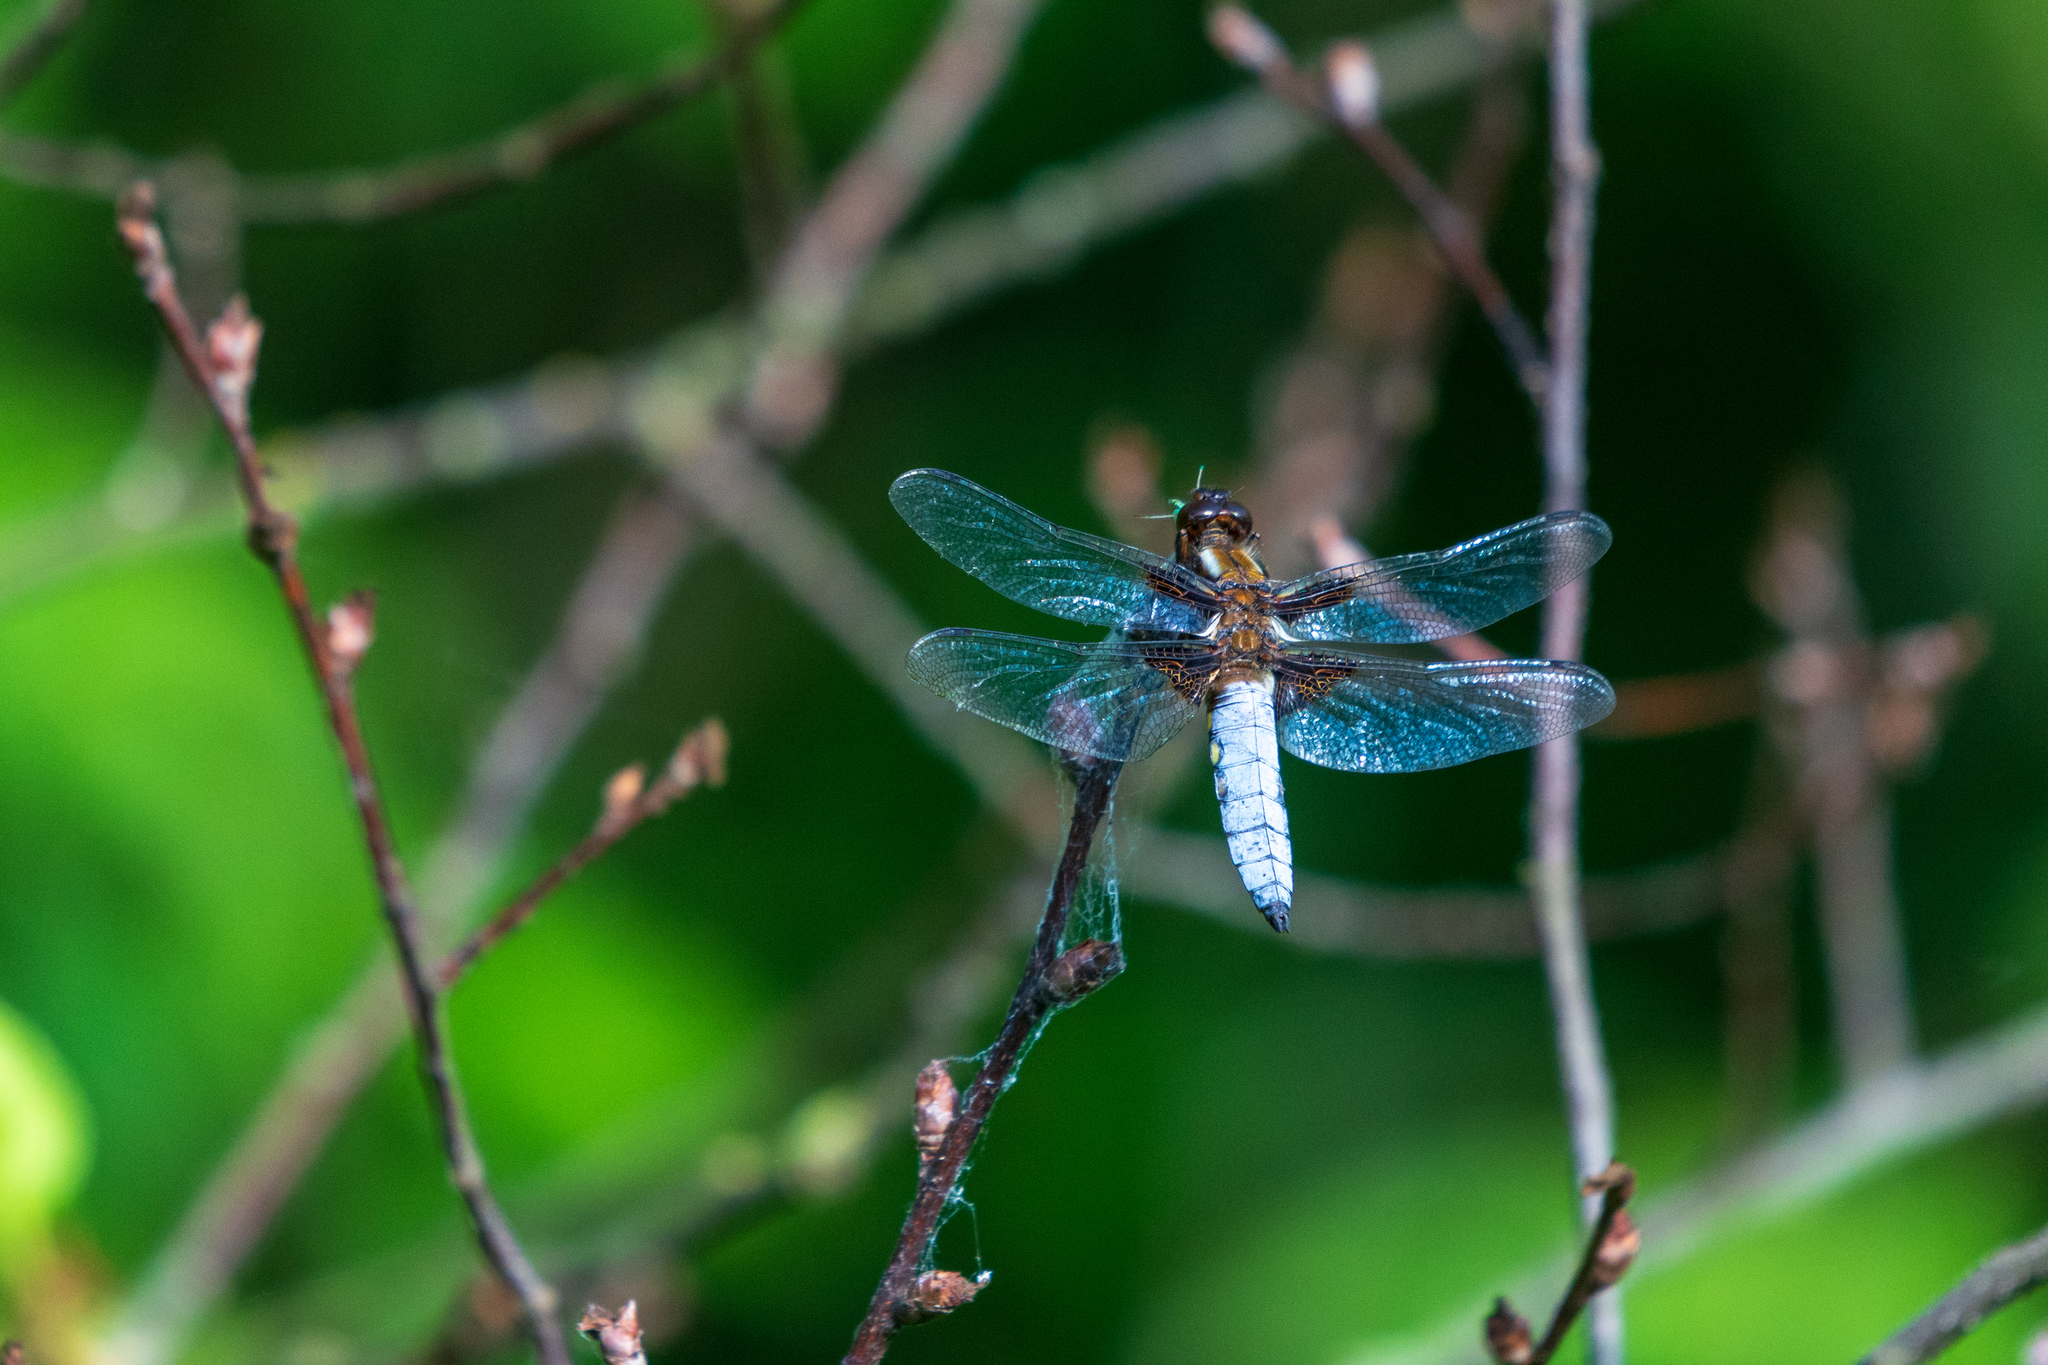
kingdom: Animalia
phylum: Arthropoda
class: Insecta
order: Odonata
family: Libellulidae
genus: Libellula
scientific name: Libellula depressa
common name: Broad-bodied chaser
